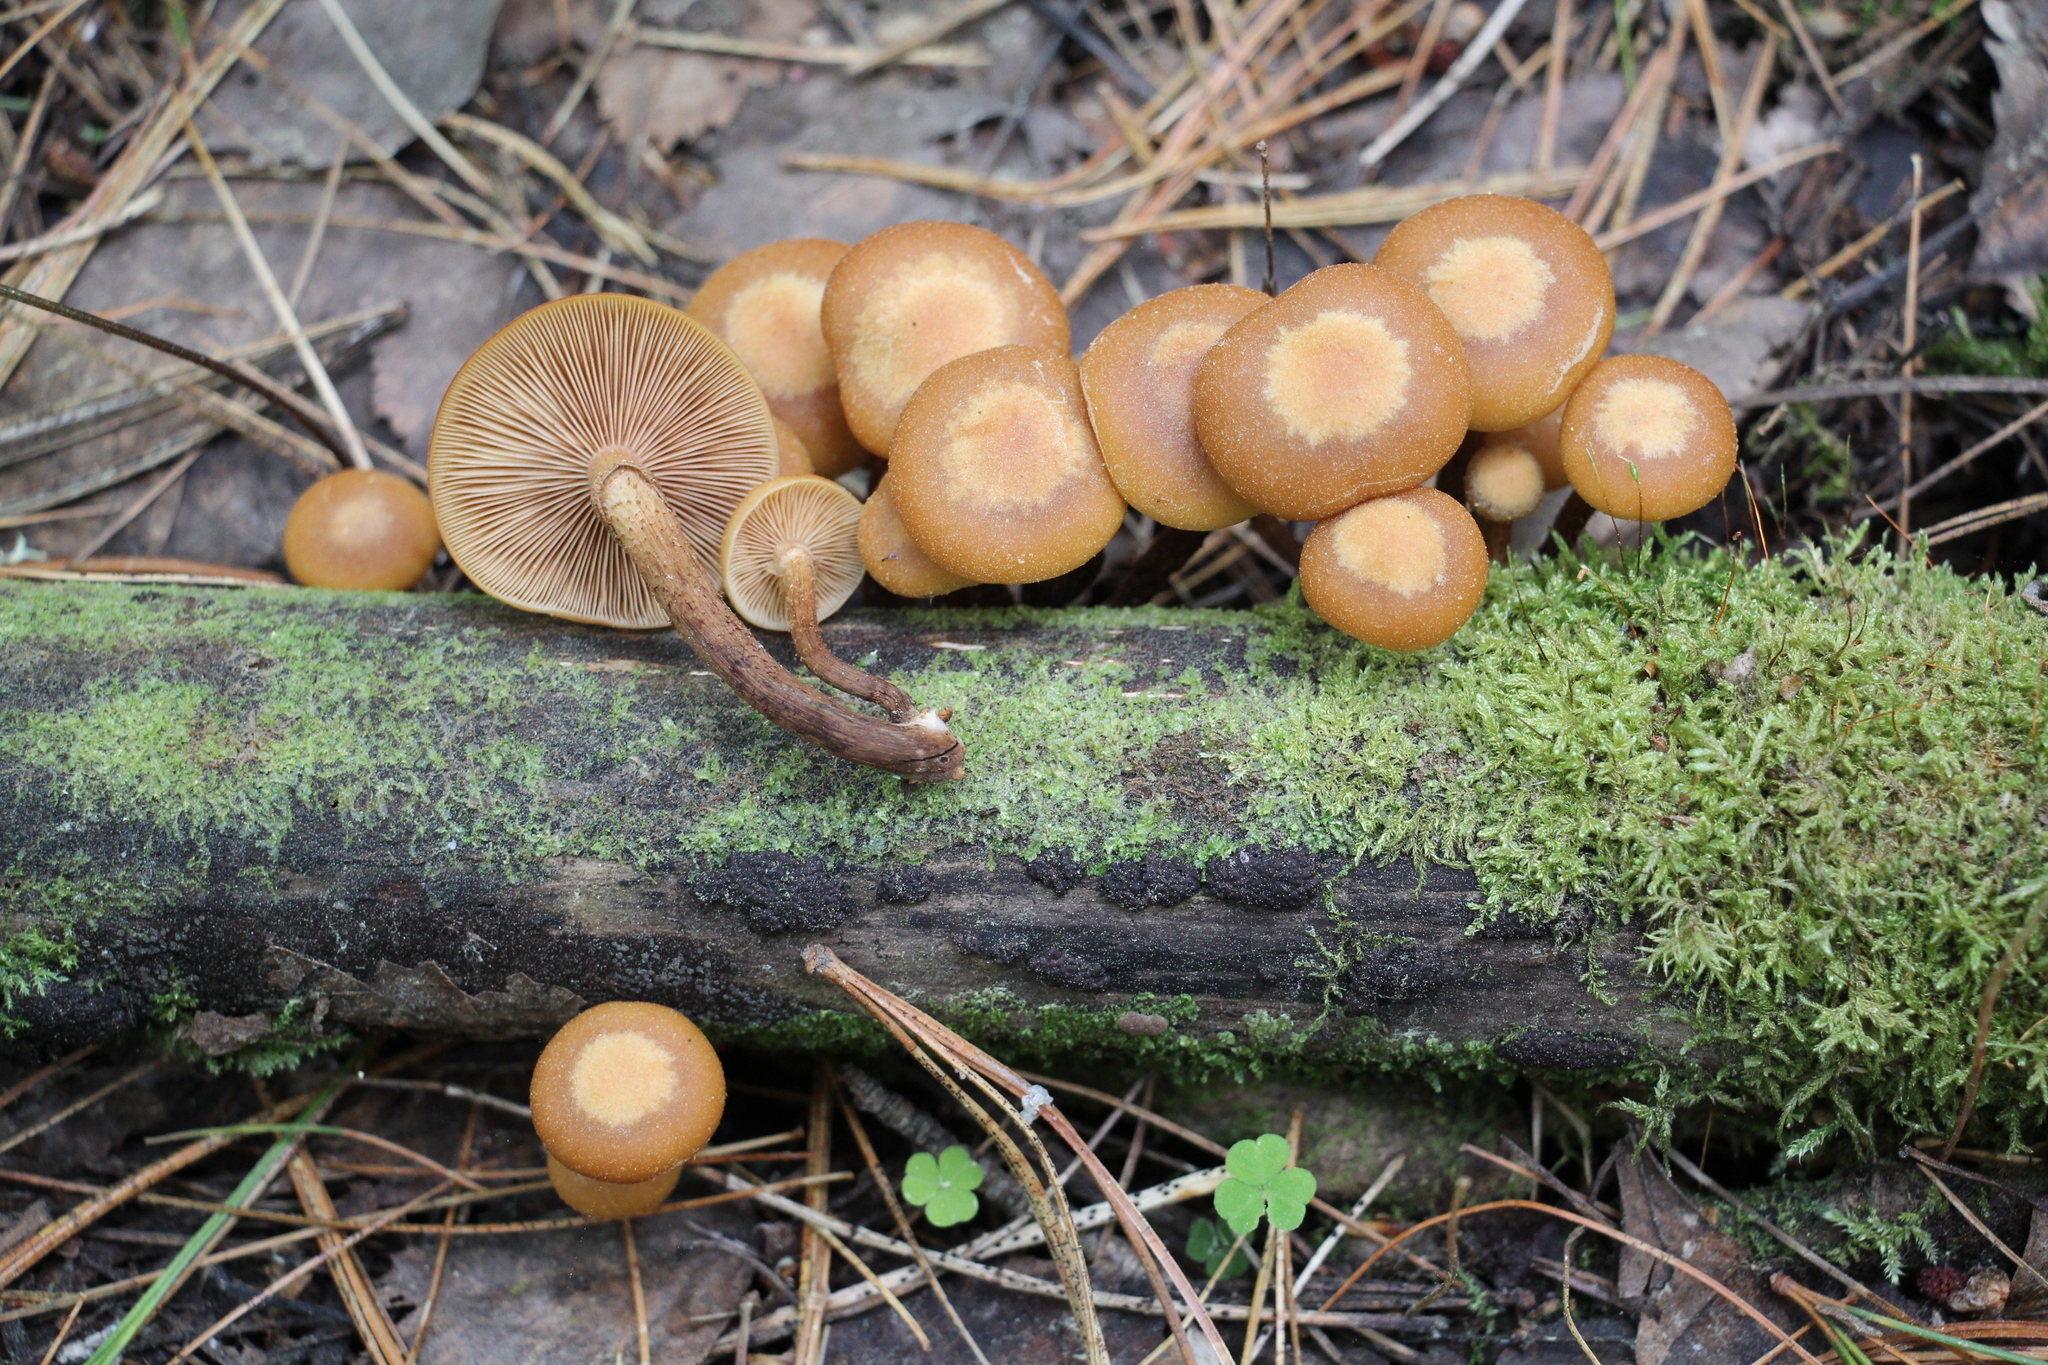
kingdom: Fungi
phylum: Basidiomycota
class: Agaricomycetes
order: Agaricales
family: Strophariaceae
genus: Kuehneromyces
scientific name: Kuehneromyces mutabilis
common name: Sheathed woodtuft
